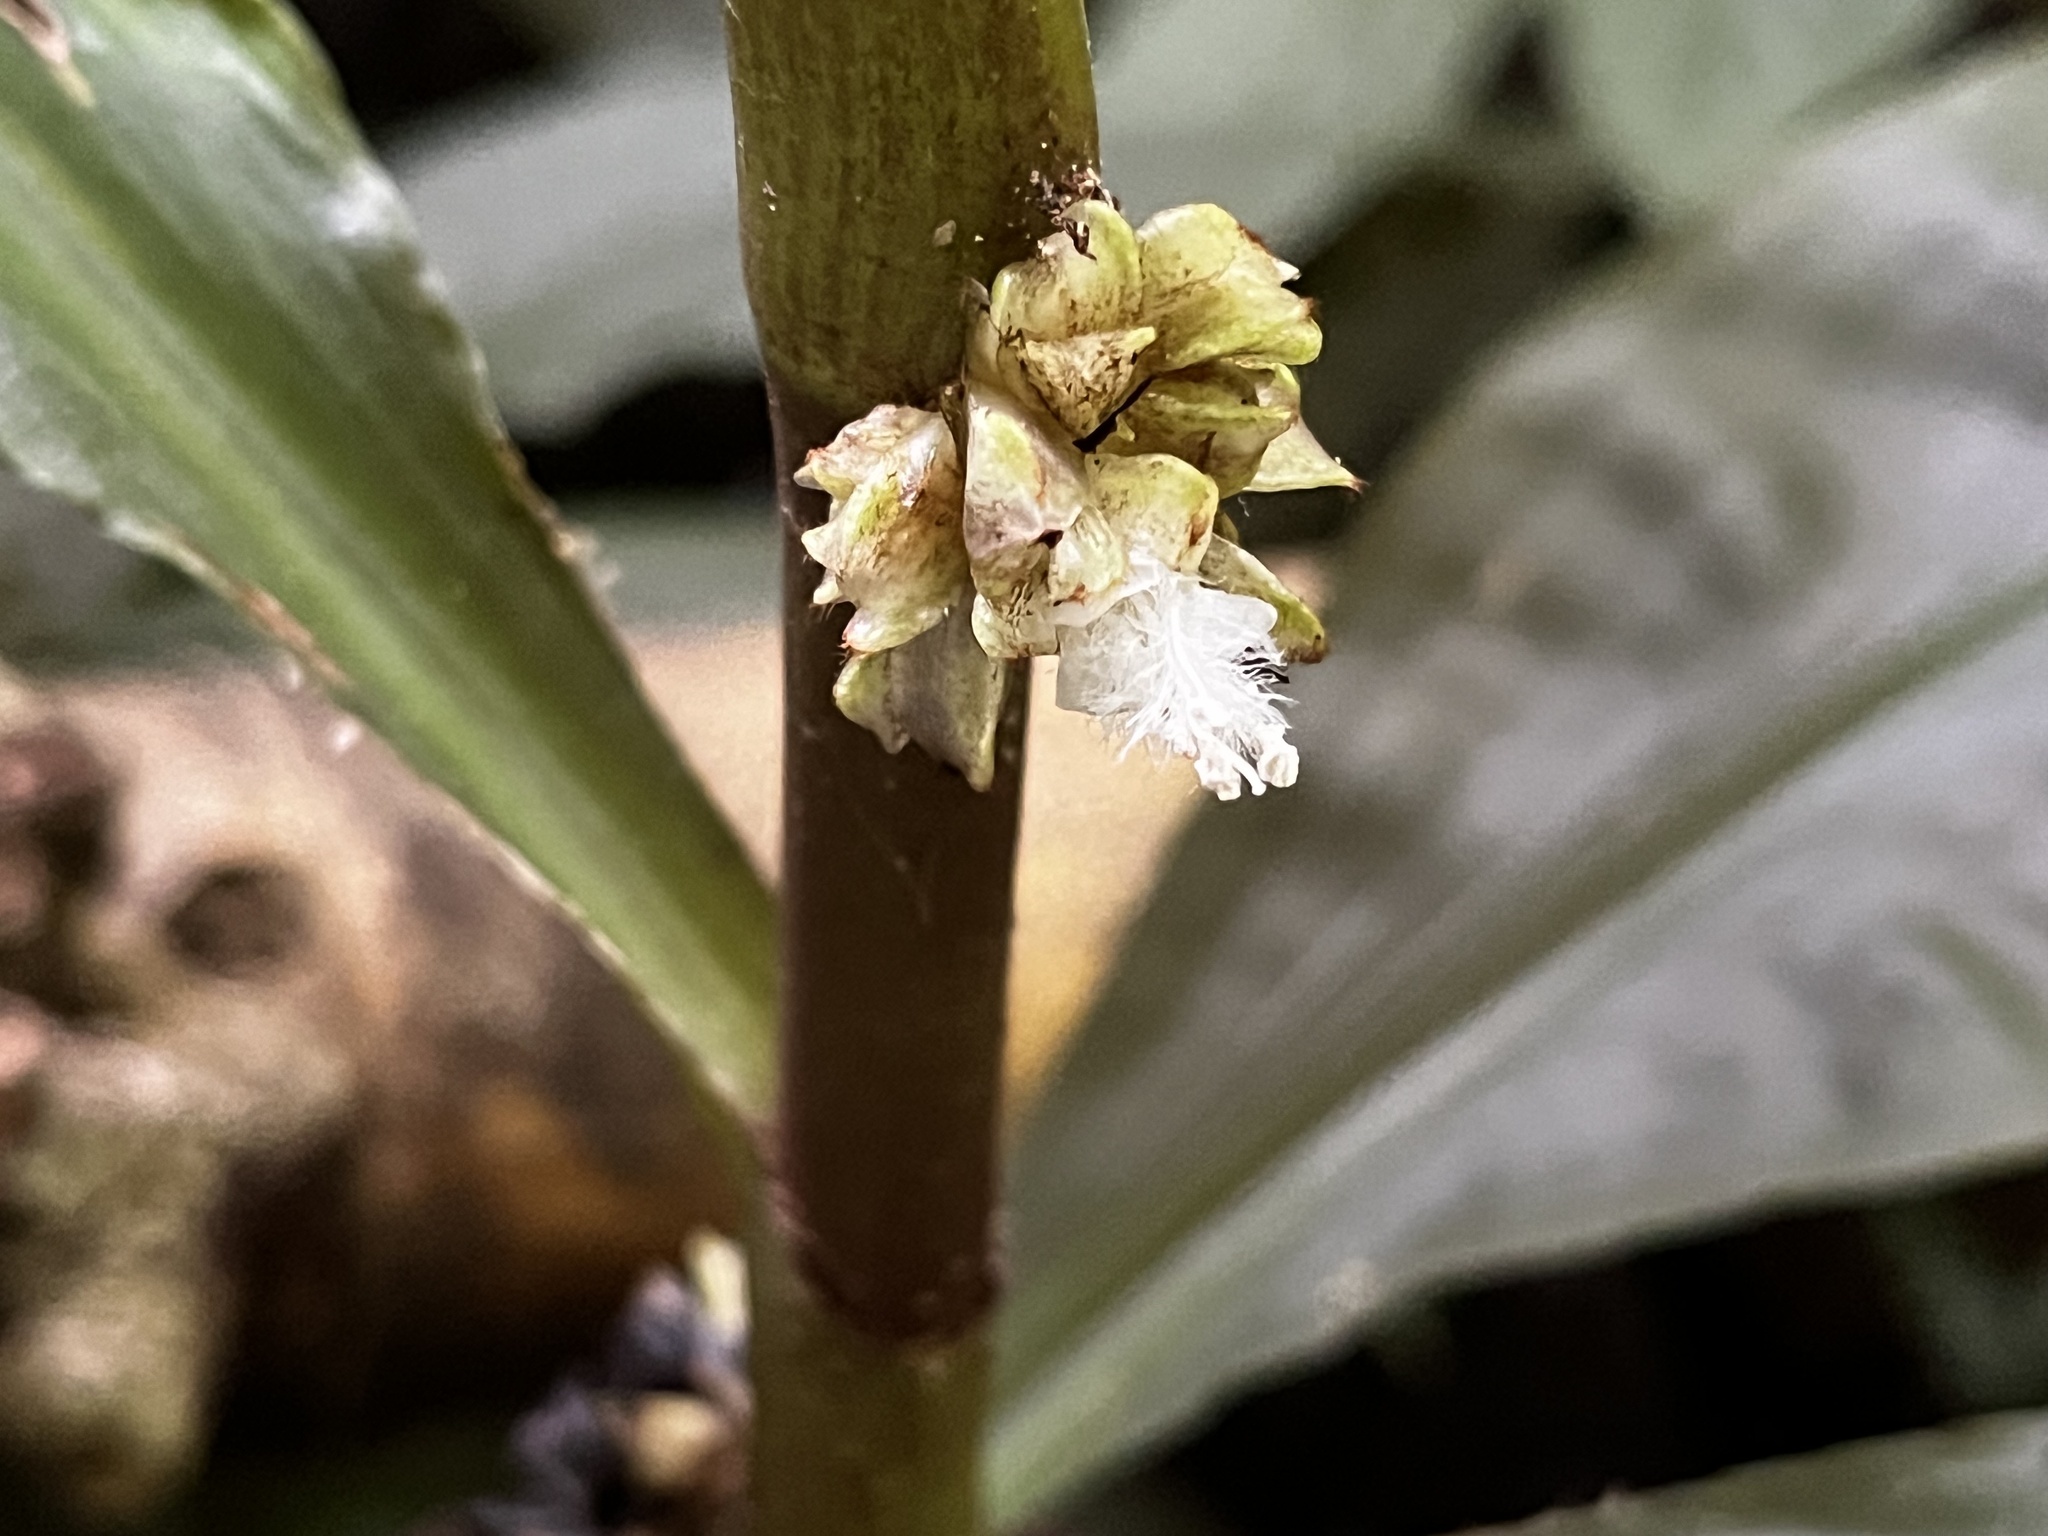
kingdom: Plantae
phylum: Tracheophyta
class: Liliopsida
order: Commelinales
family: Commelinaceae
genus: Amischotolype
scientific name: Amischotolype glabrata
